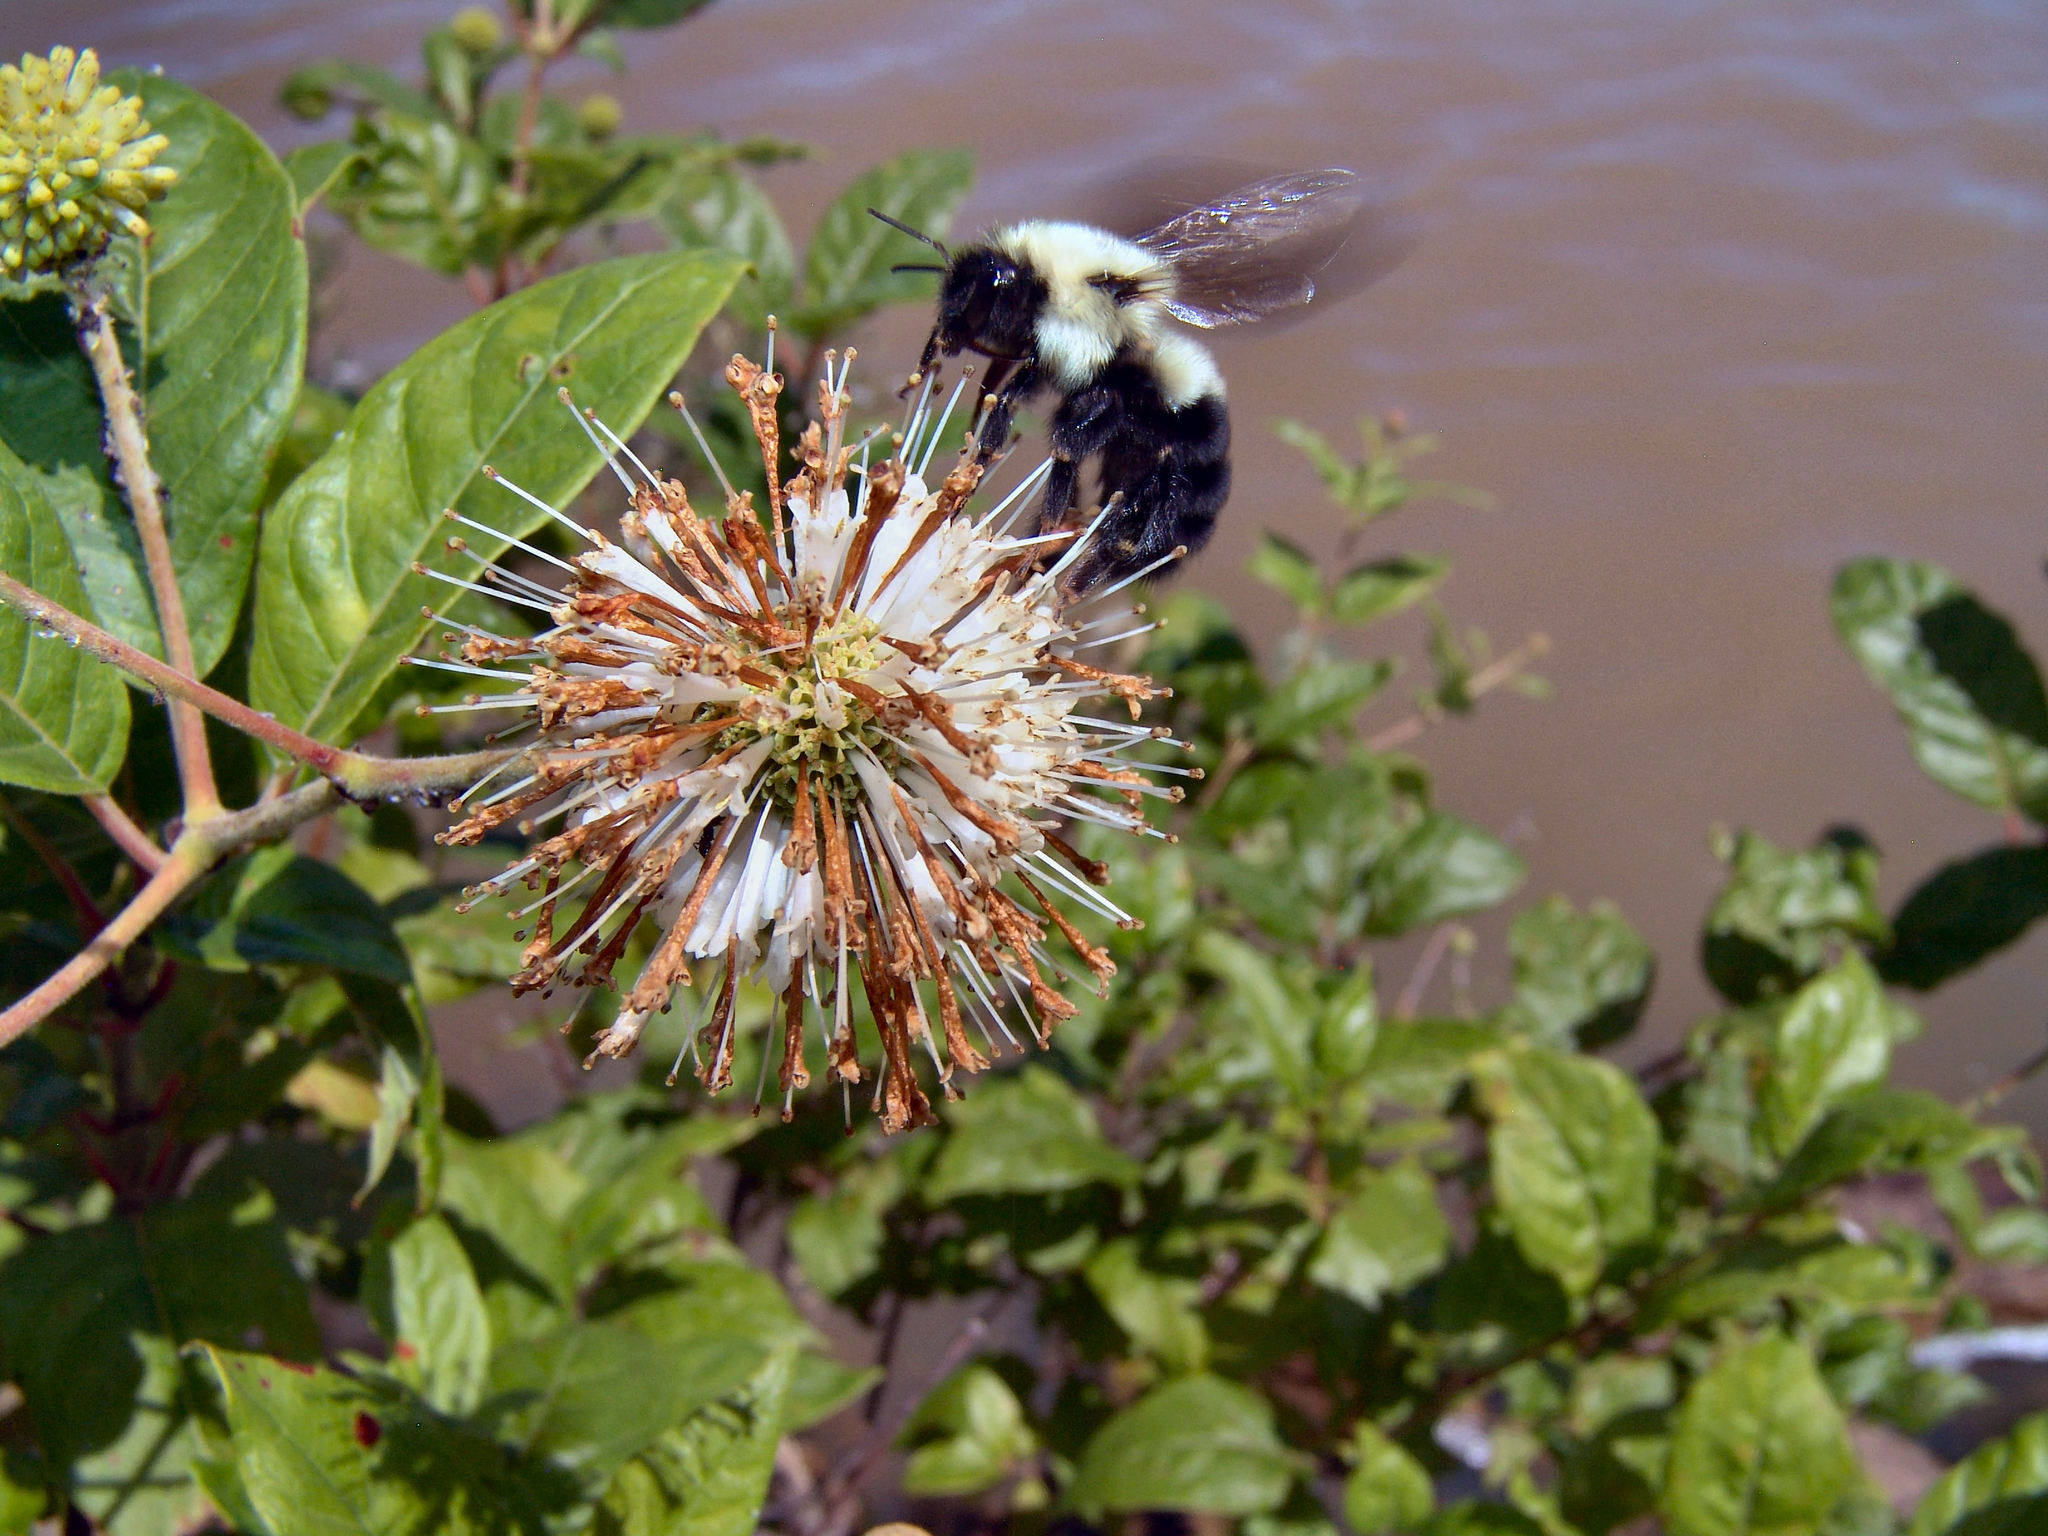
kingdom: Animalia
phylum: Arthropoda
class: Insecta
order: Hymenoptera
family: Apidae
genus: Bombus
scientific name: Bombus griseocollis
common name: Brown-belted bumble bee
